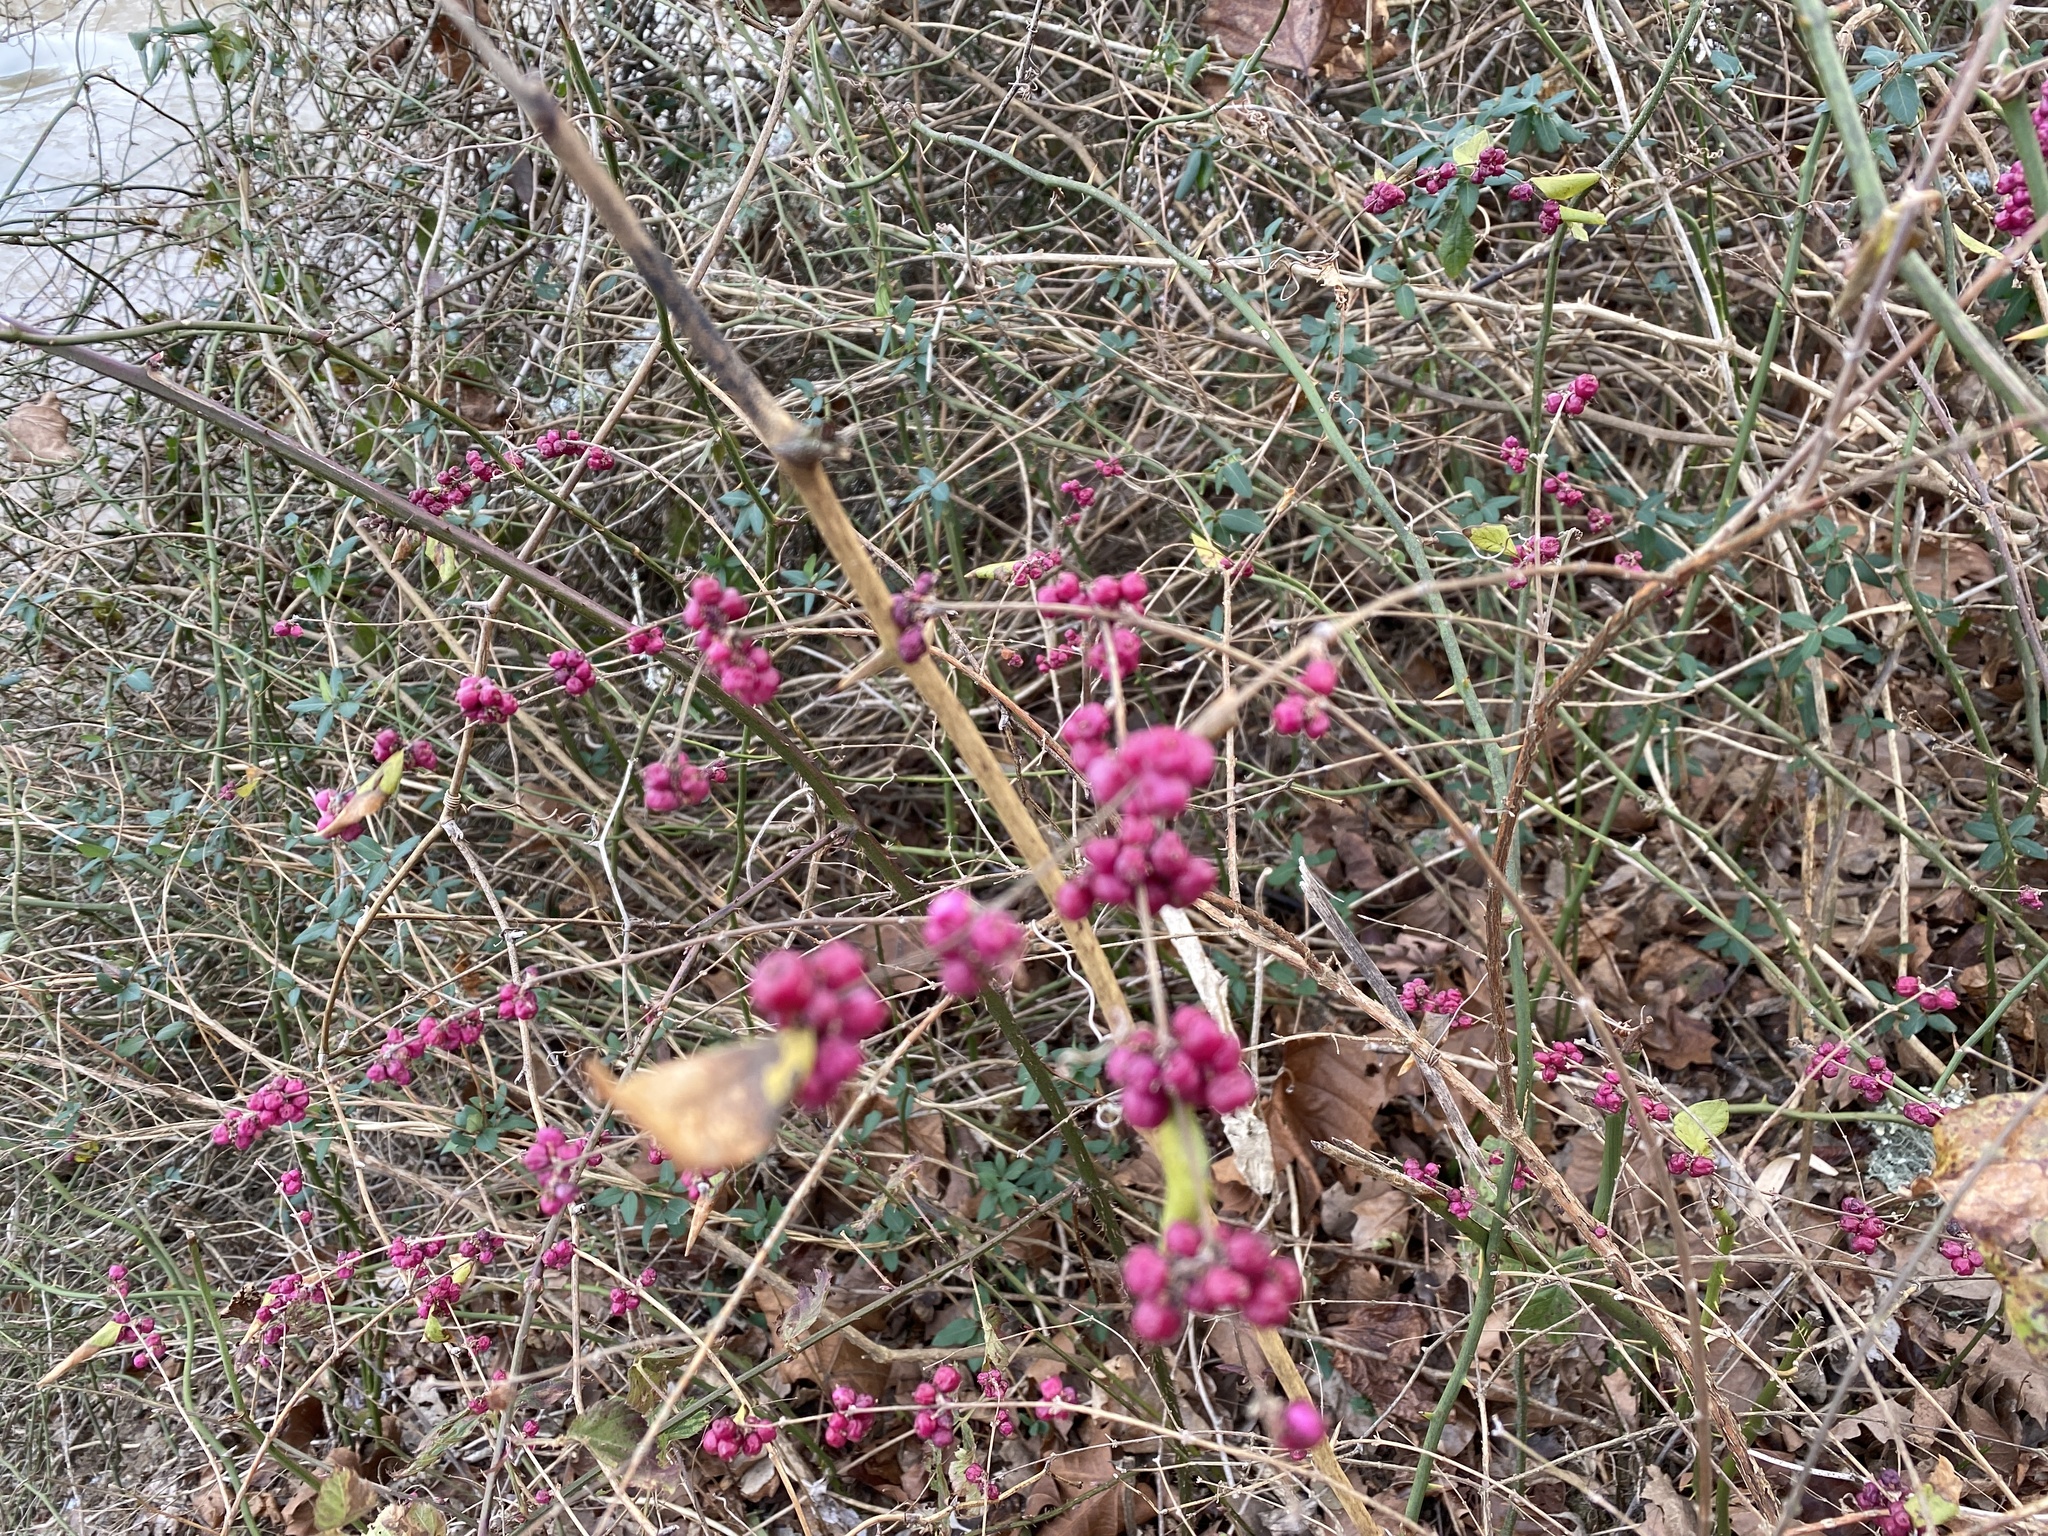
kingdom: Plantae
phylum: Tracheophyta
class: Magnoliopsida
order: Dipsacales
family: Caprifoliaceae
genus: Symphoricarpos
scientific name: Symphoricarpos orbiculatus
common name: Coralberry
